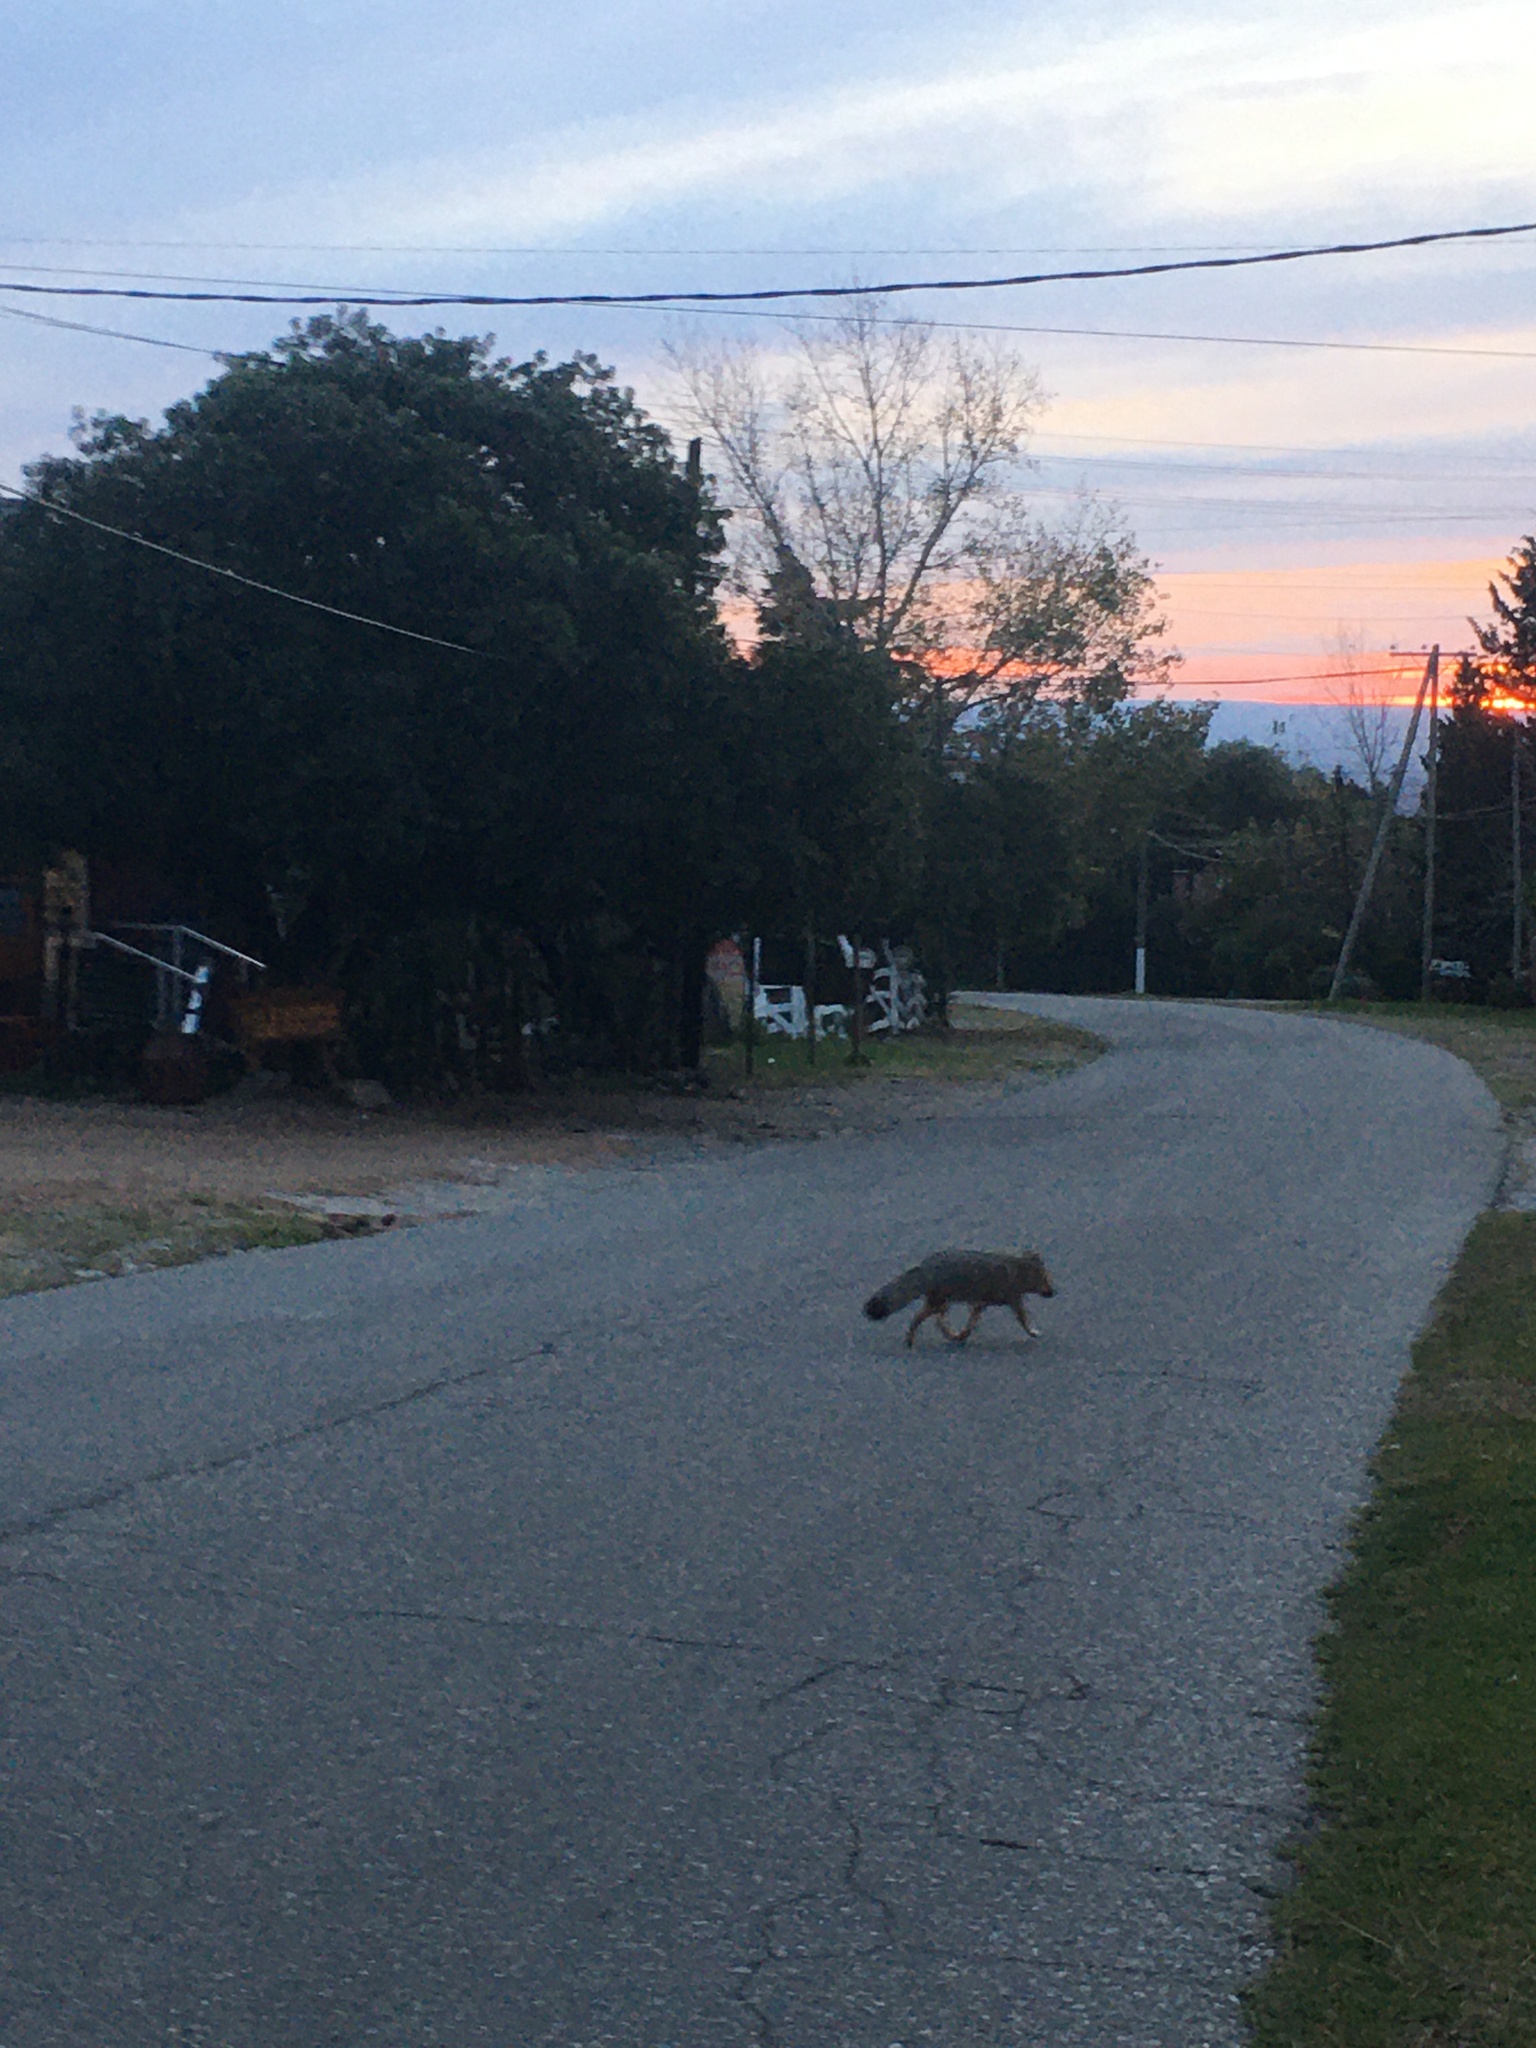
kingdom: Animalia
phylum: Chordata
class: Mammalia
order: Carnivora
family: Canidae
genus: Lycalopex
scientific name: Lycalopex gymnocercus
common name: Pampas fox
